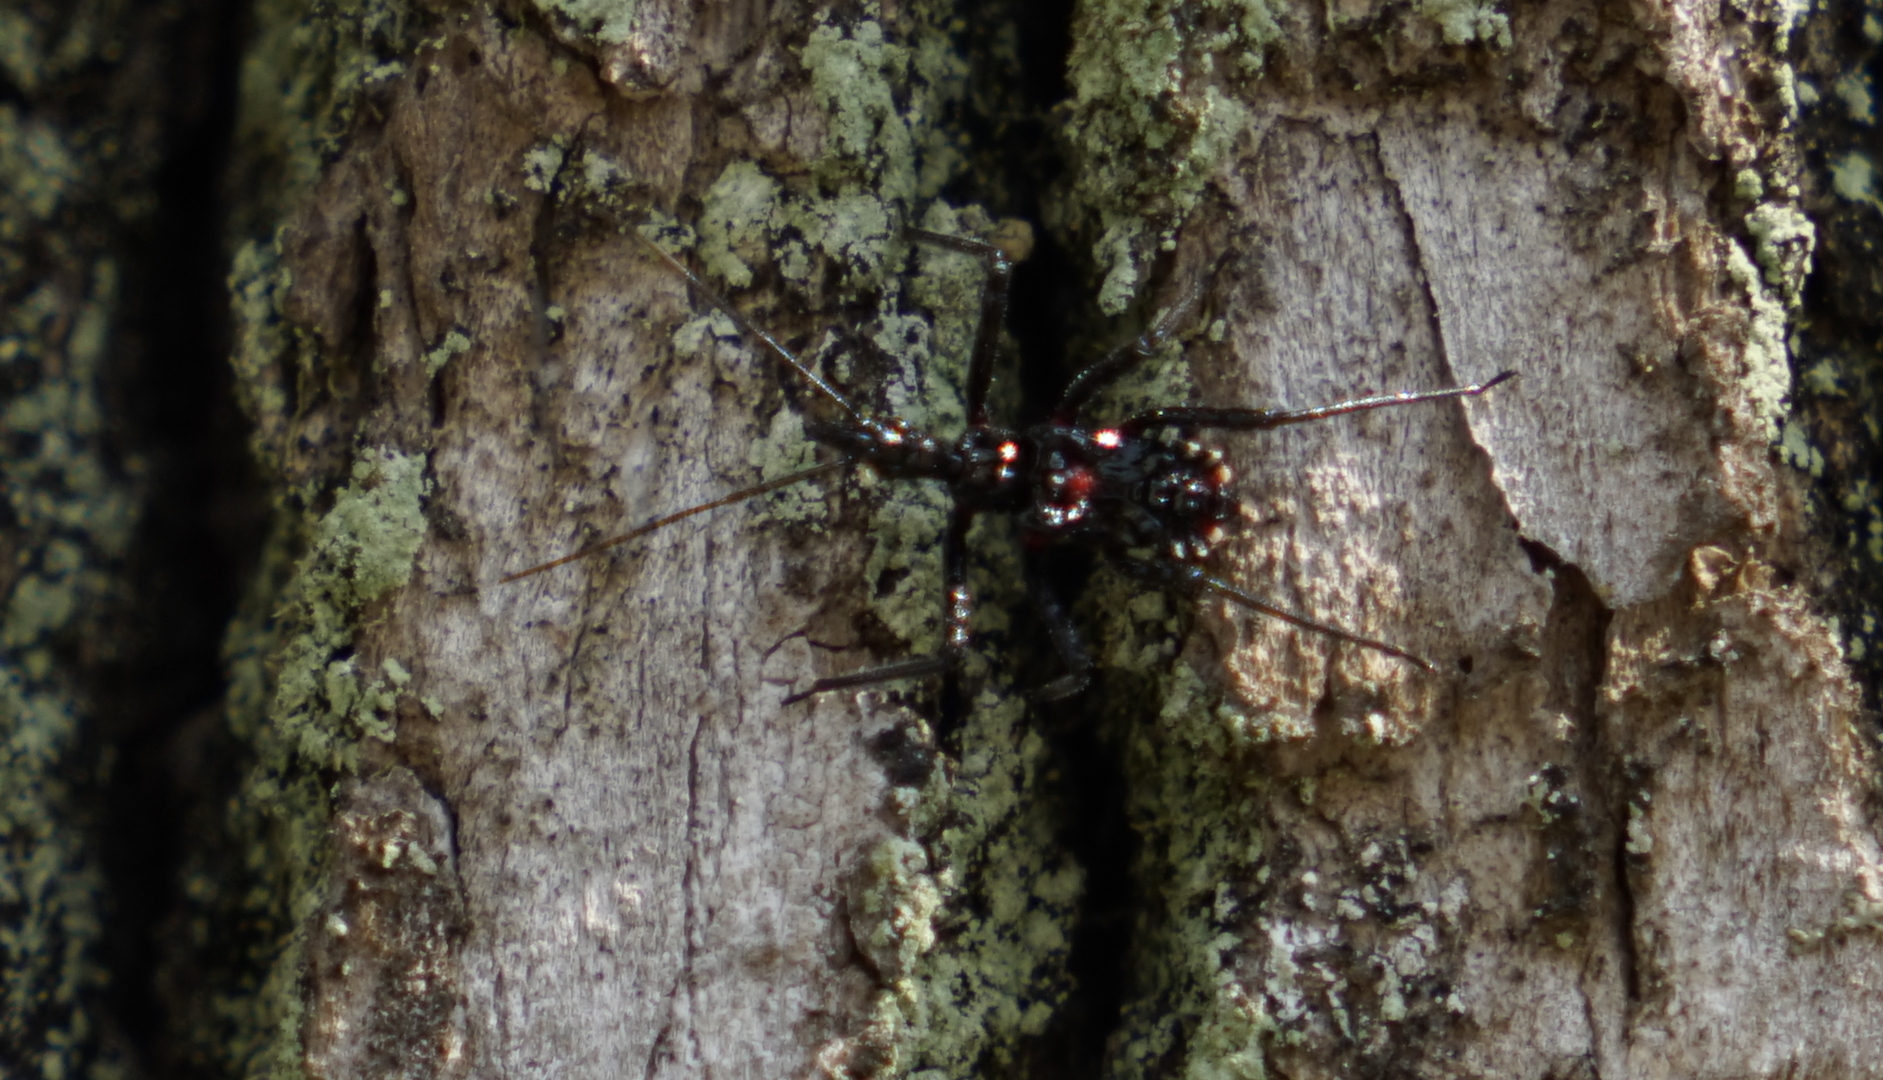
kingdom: Animalia
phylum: Arthropoda
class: Insecta
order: Hemiptera
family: Reduviidae
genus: Agriosphodrus
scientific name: Agriosphodrus dohrni
